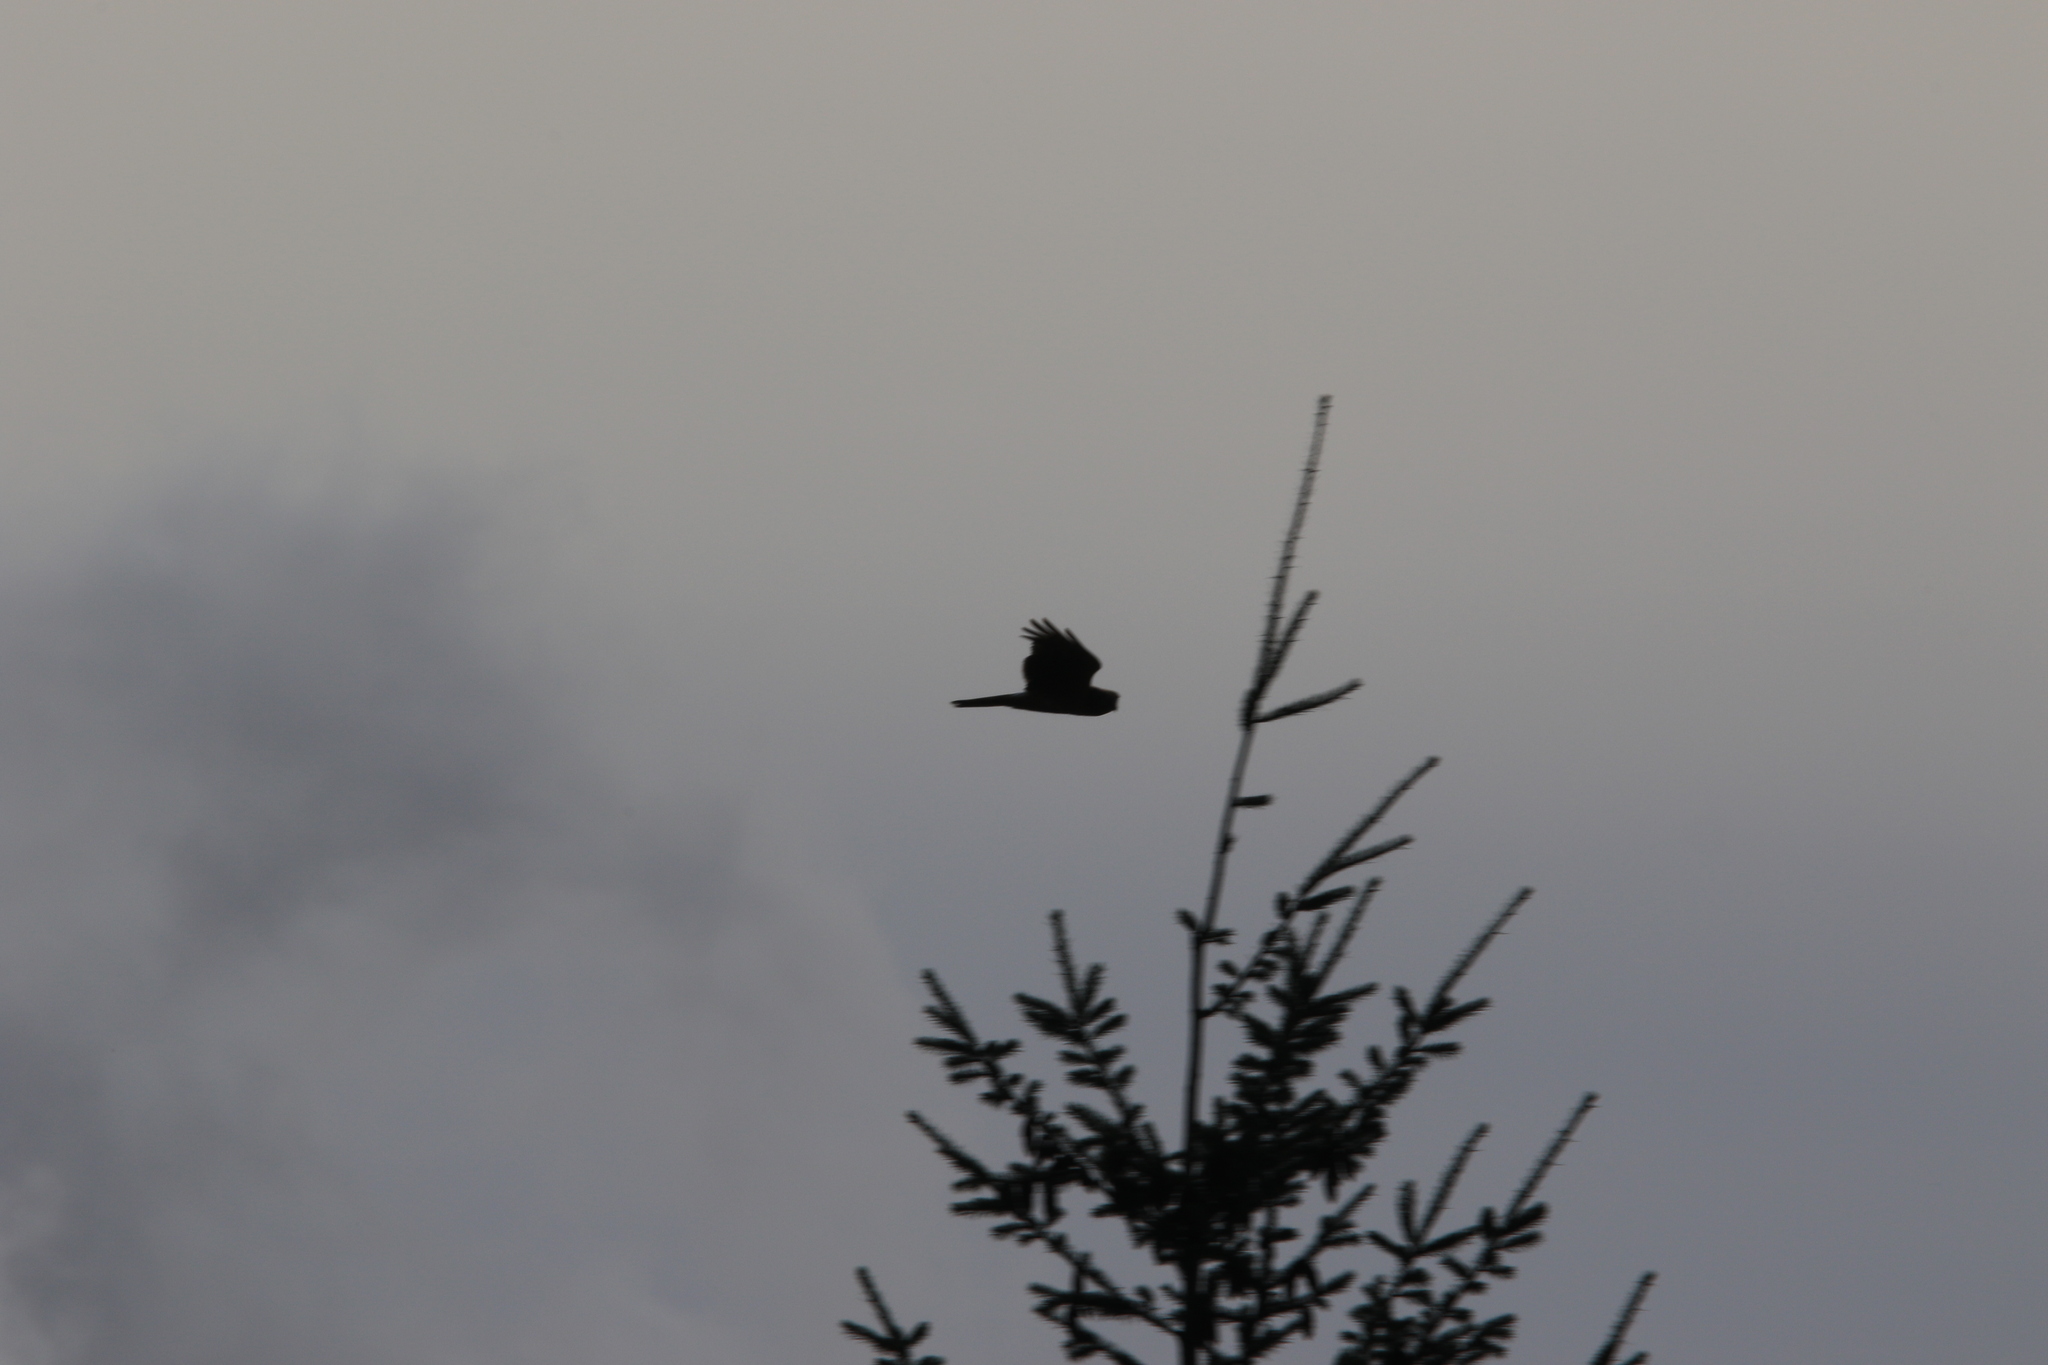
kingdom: Animalia
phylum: Chordata
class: Aves
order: Accipitriformes
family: Accipitridae
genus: Circus
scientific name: Circus cyaneus
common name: Hen harrier
